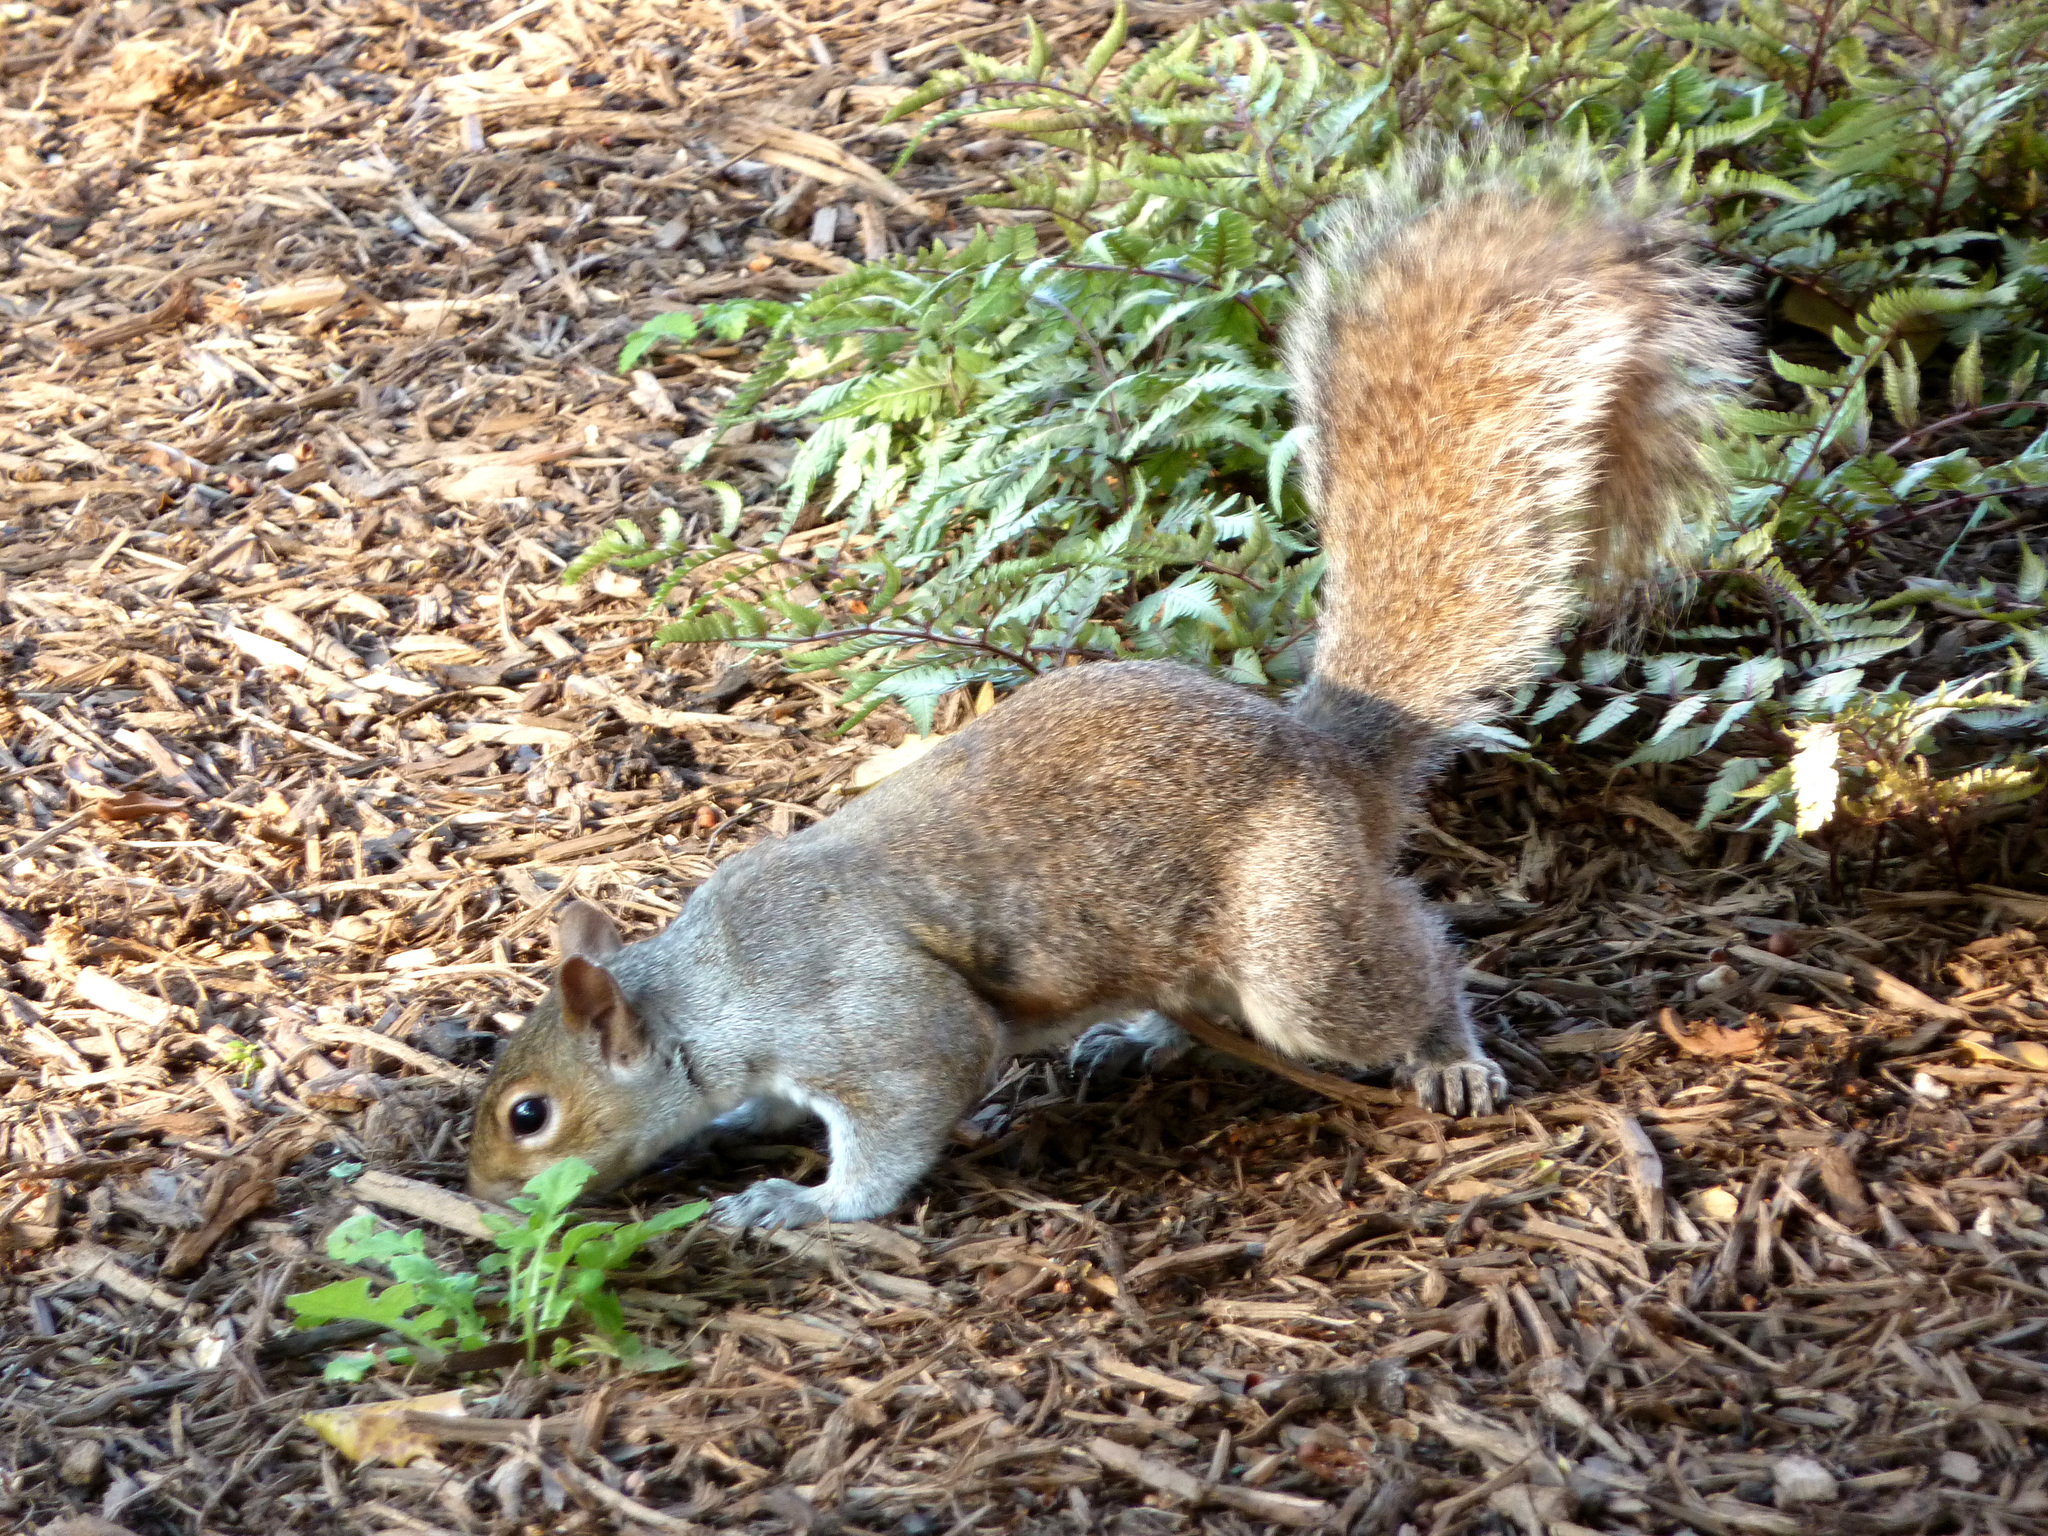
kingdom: Animalia
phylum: Chordata
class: Mammalia
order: Rodentia
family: Sciuridae
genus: Sciurus
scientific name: Sciurus carolinensis
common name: Eastern gray squirrel
